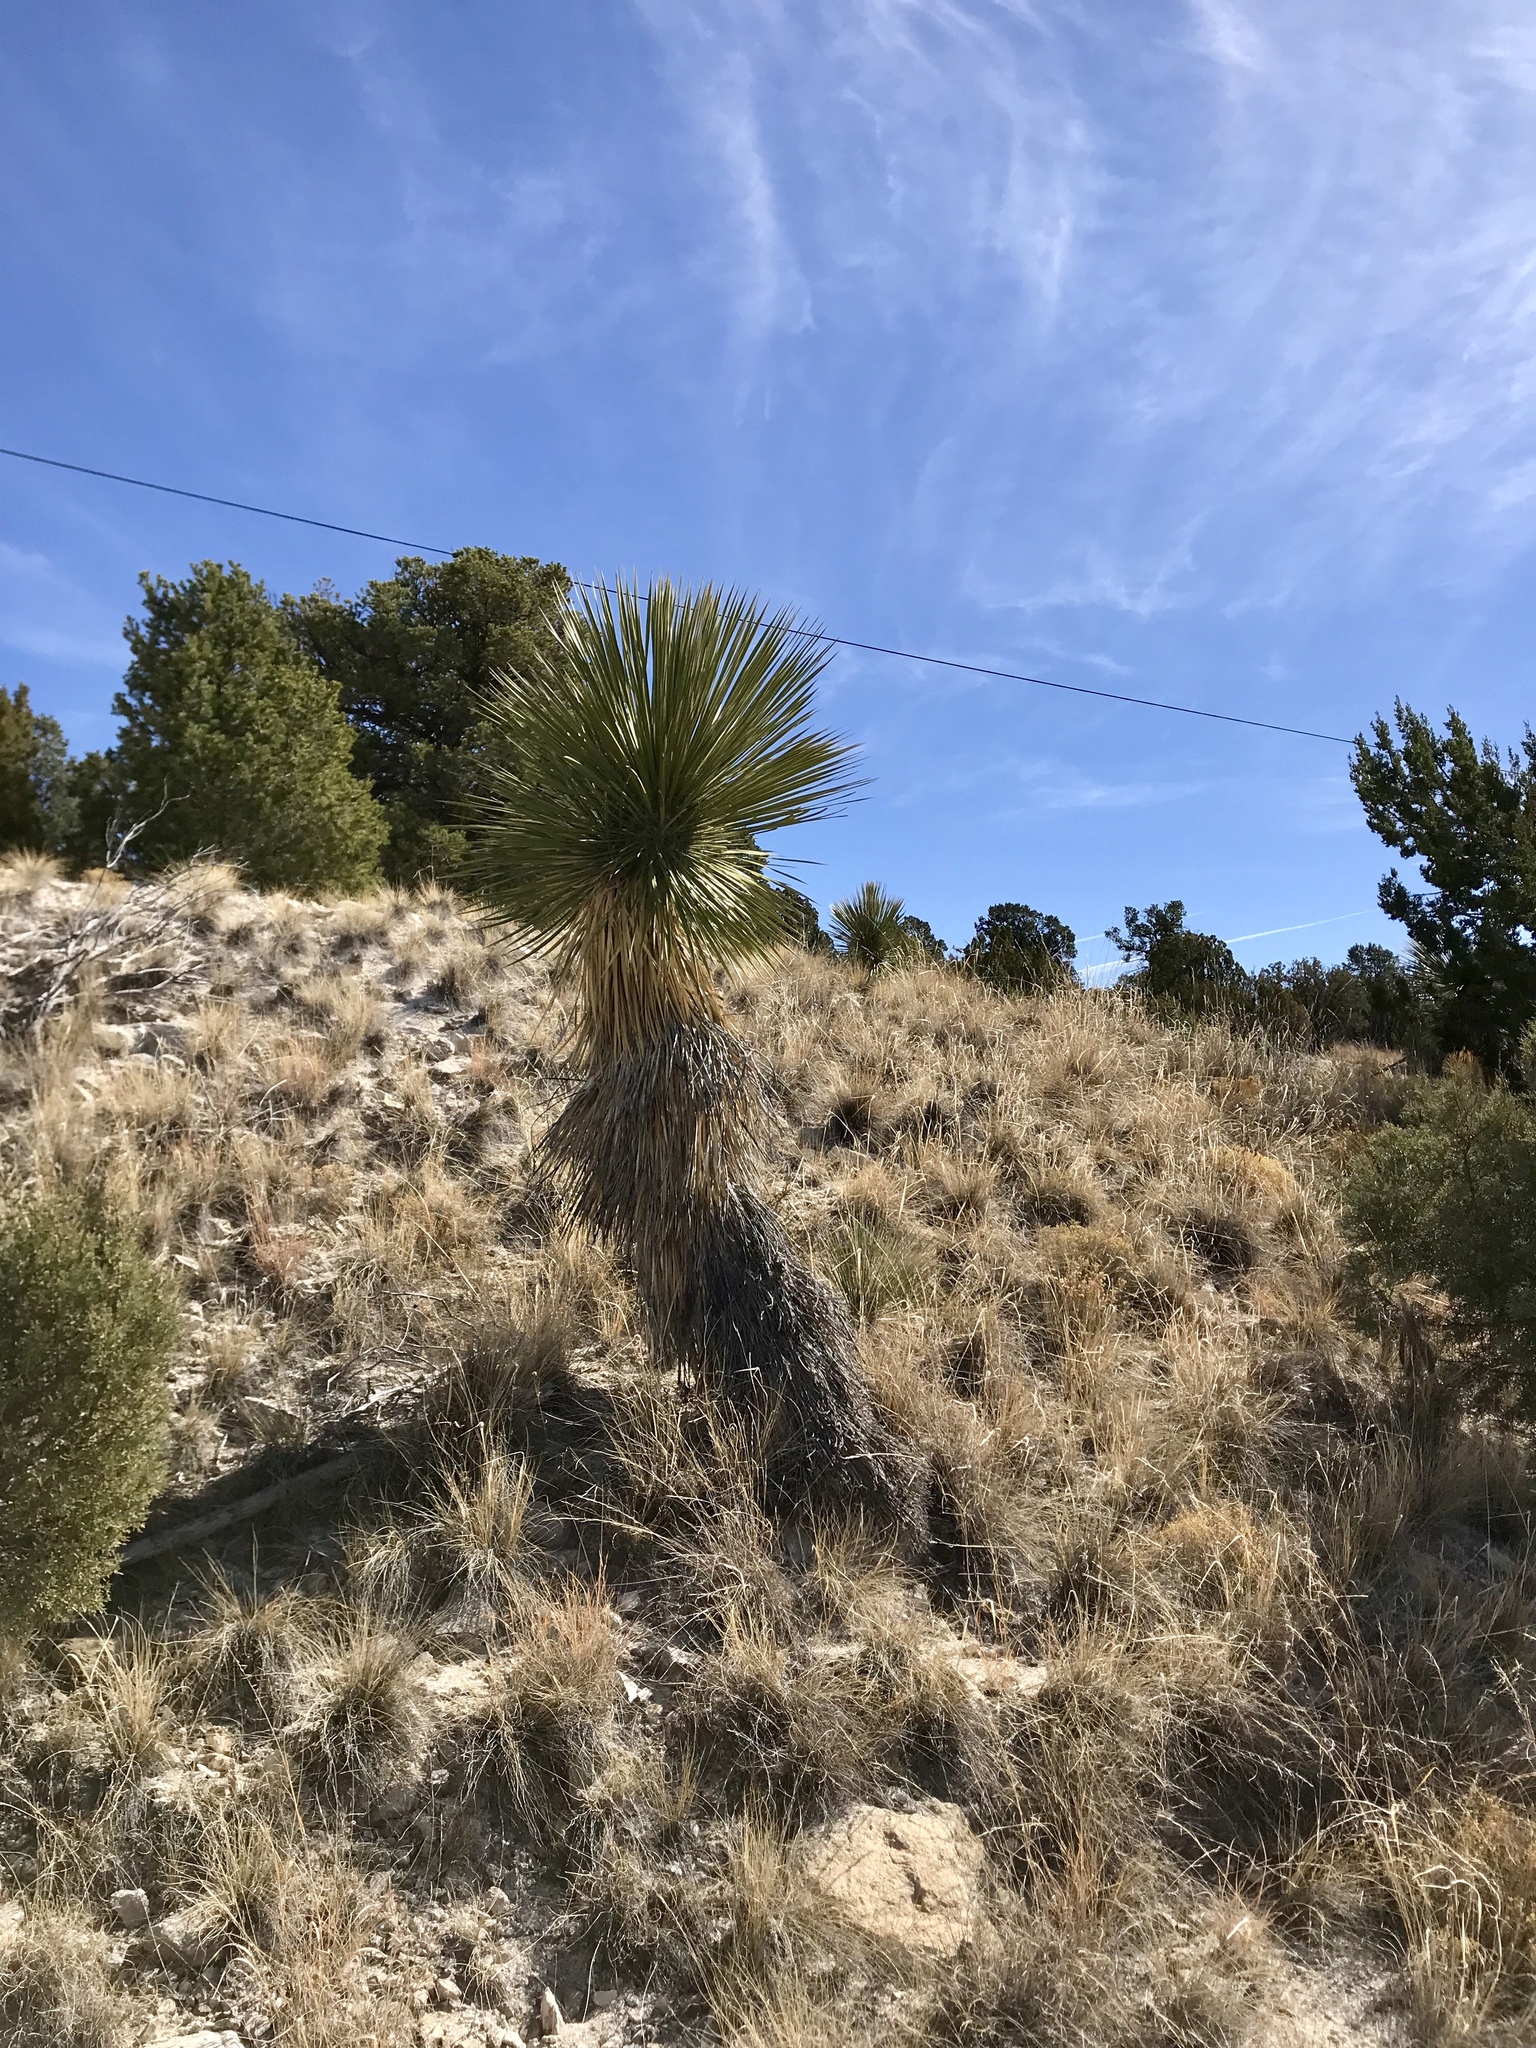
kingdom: Plantae
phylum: Tracheophyta
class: Liliopsida
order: Asparagales
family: Asparagaceae
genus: Yucca
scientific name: Yucca elata
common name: Palmella
